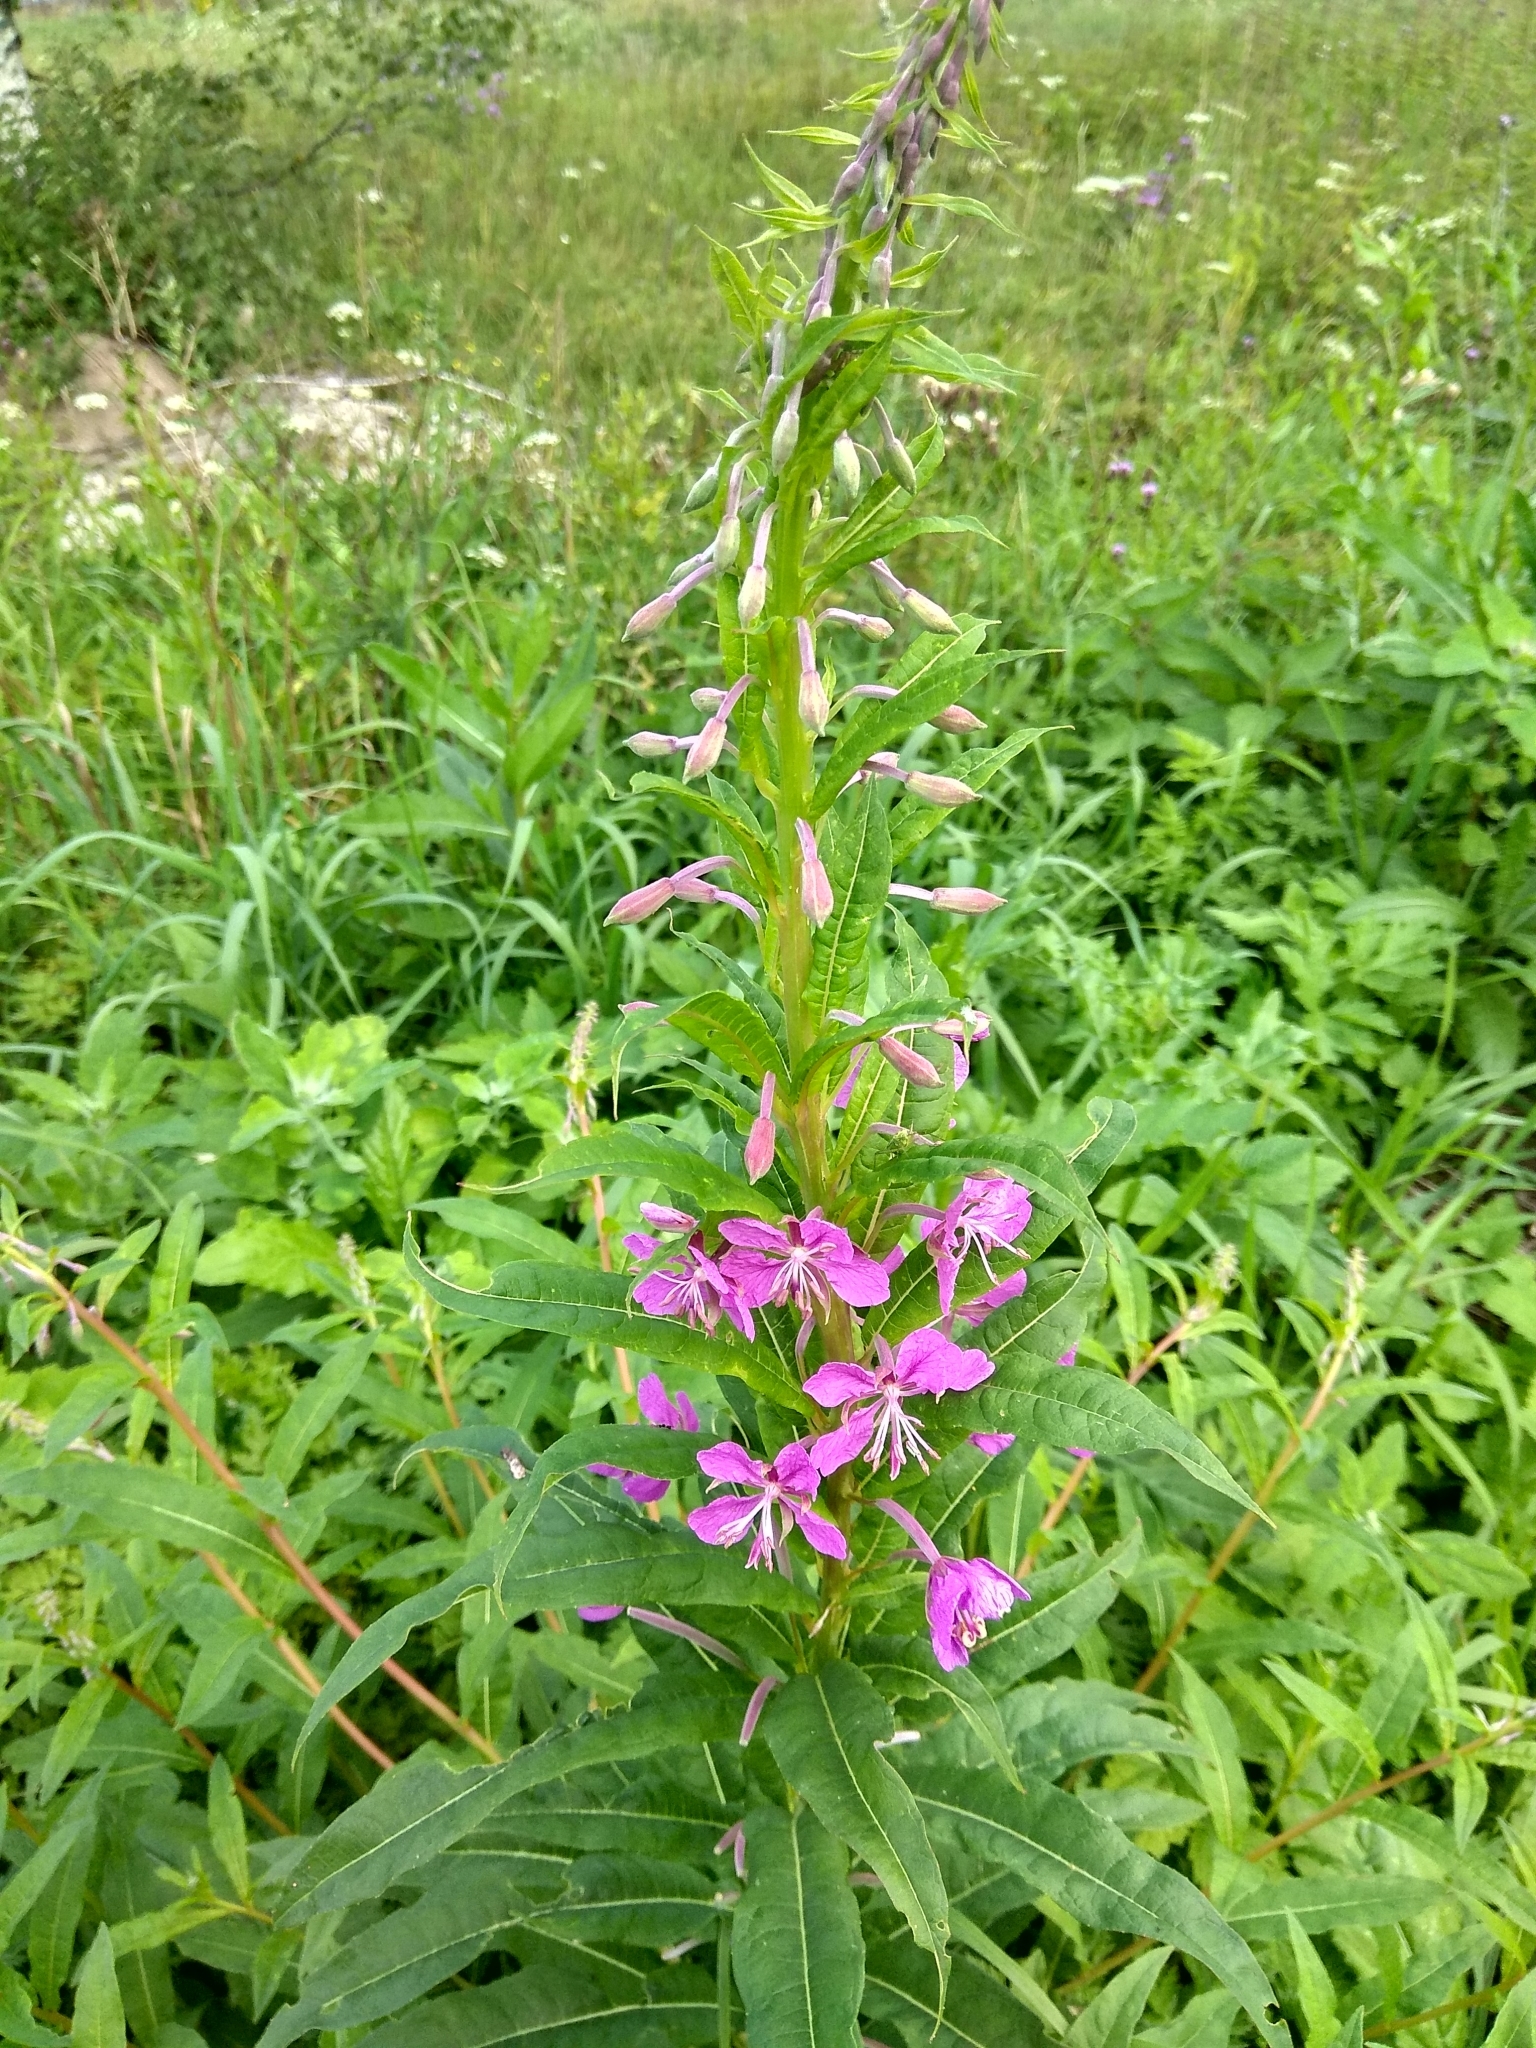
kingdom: Plantae
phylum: Tracheophyta
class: Magnoliopsida
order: Myrtales
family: Onagraceae
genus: Chamaenerion
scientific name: Chamaenerion angustifolium
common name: Fireweed
